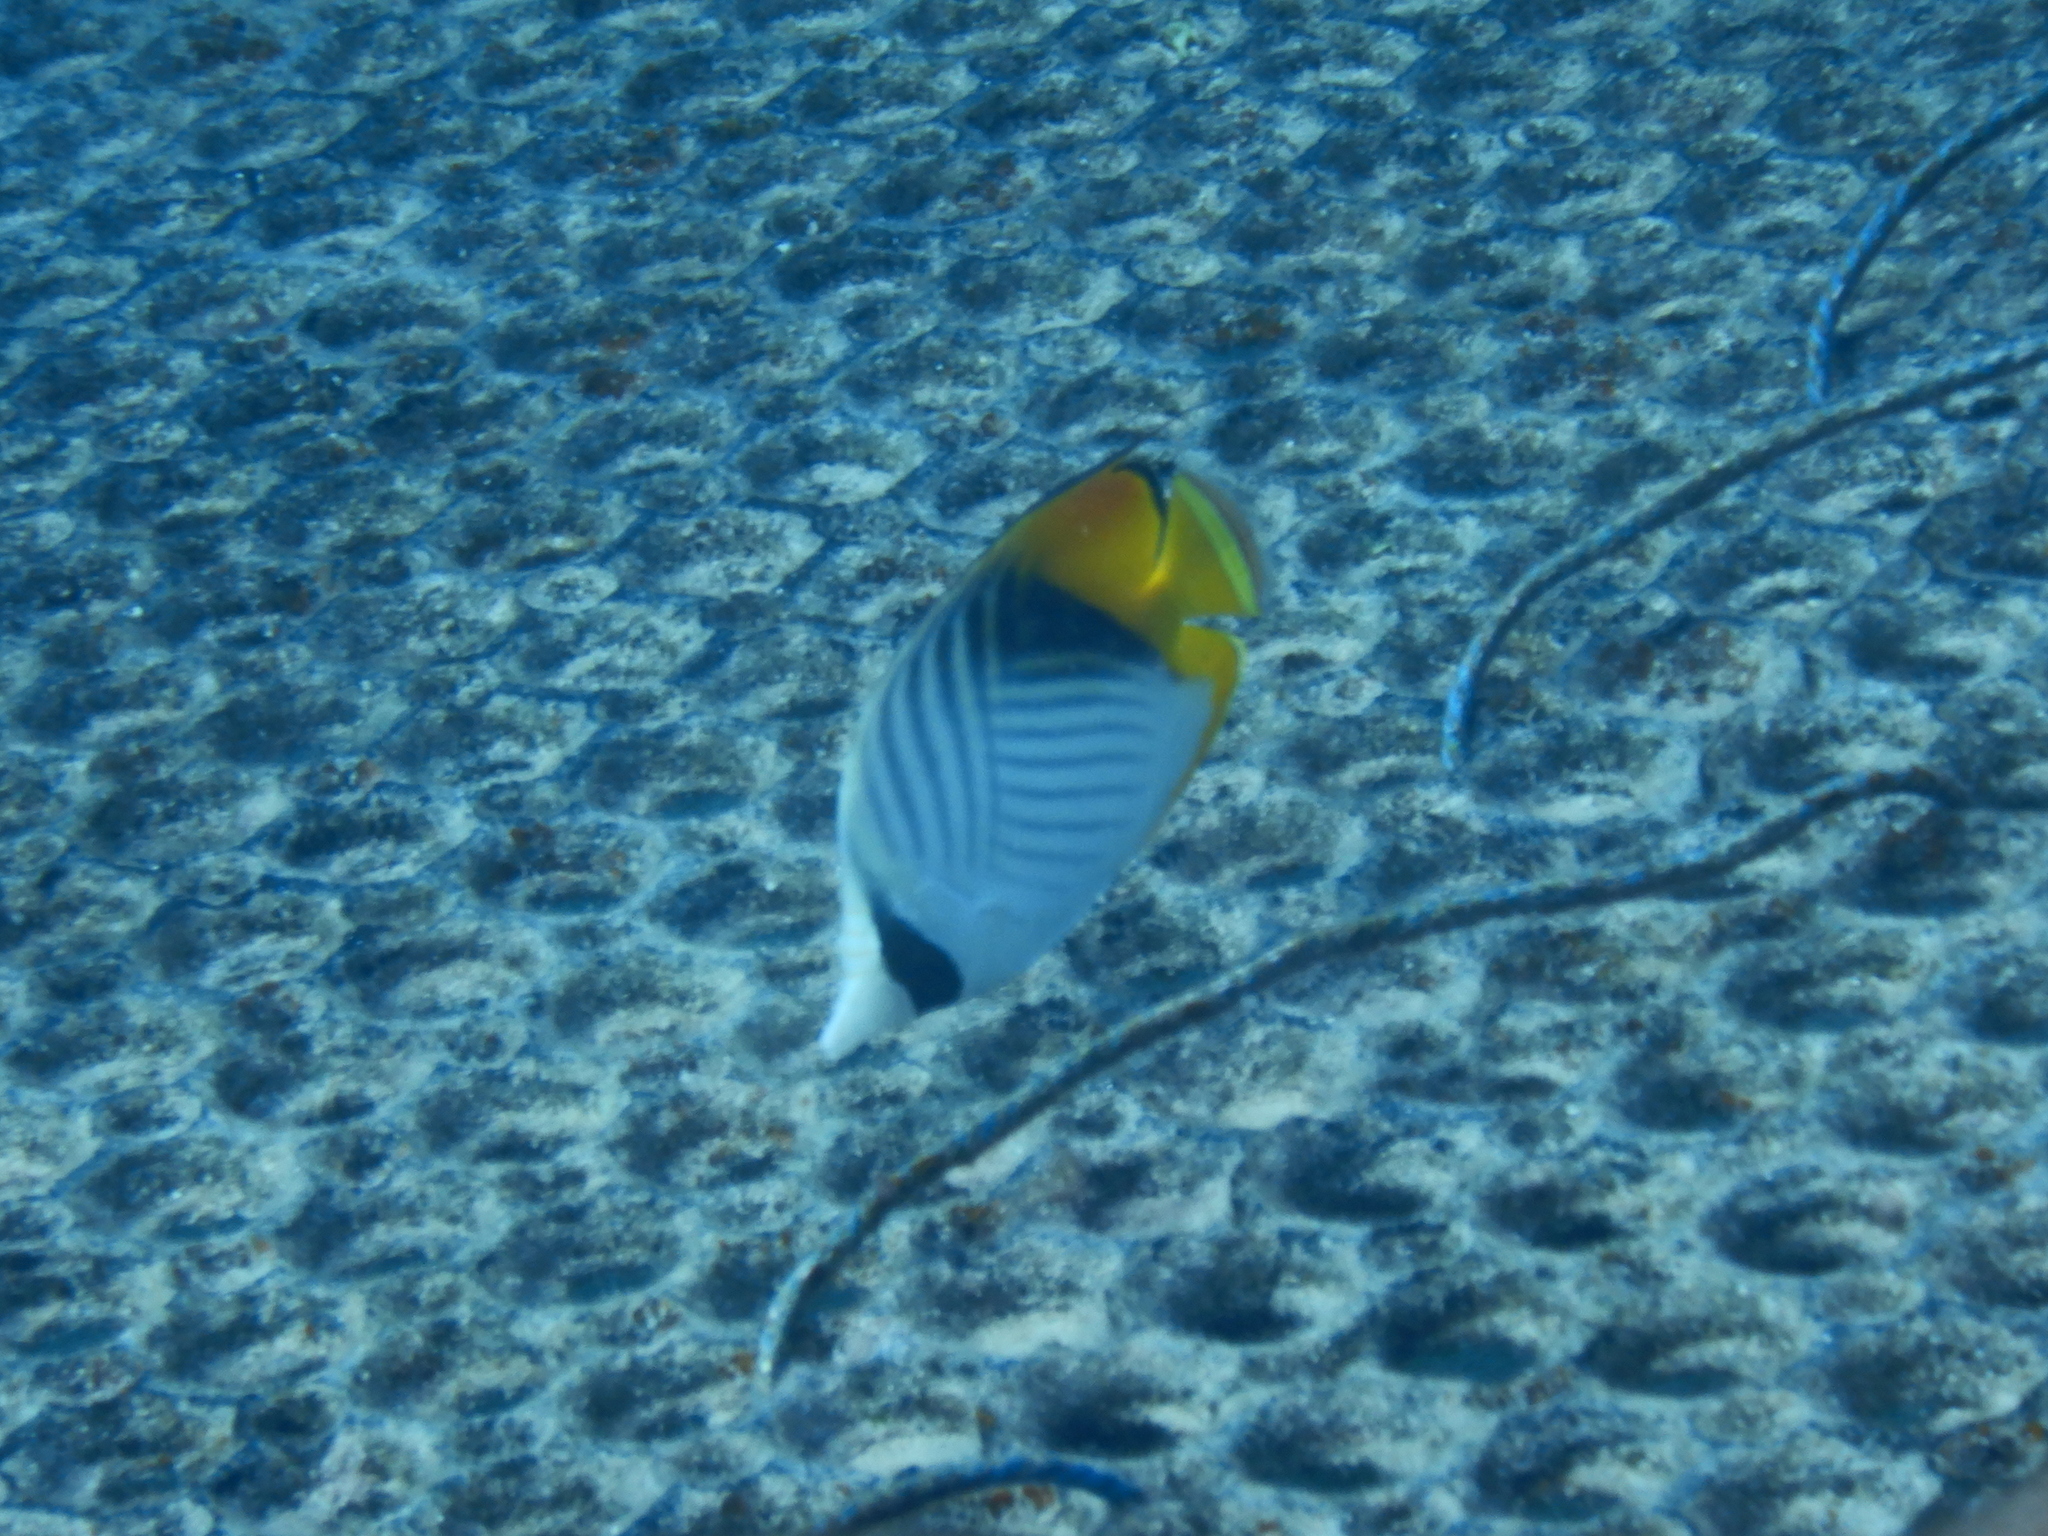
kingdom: Animalia
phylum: Chordata
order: Perciformes
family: Chaetodontidae
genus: Chaetodon
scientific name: Chaetodon auriga
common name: Threadfin butterflyfish
